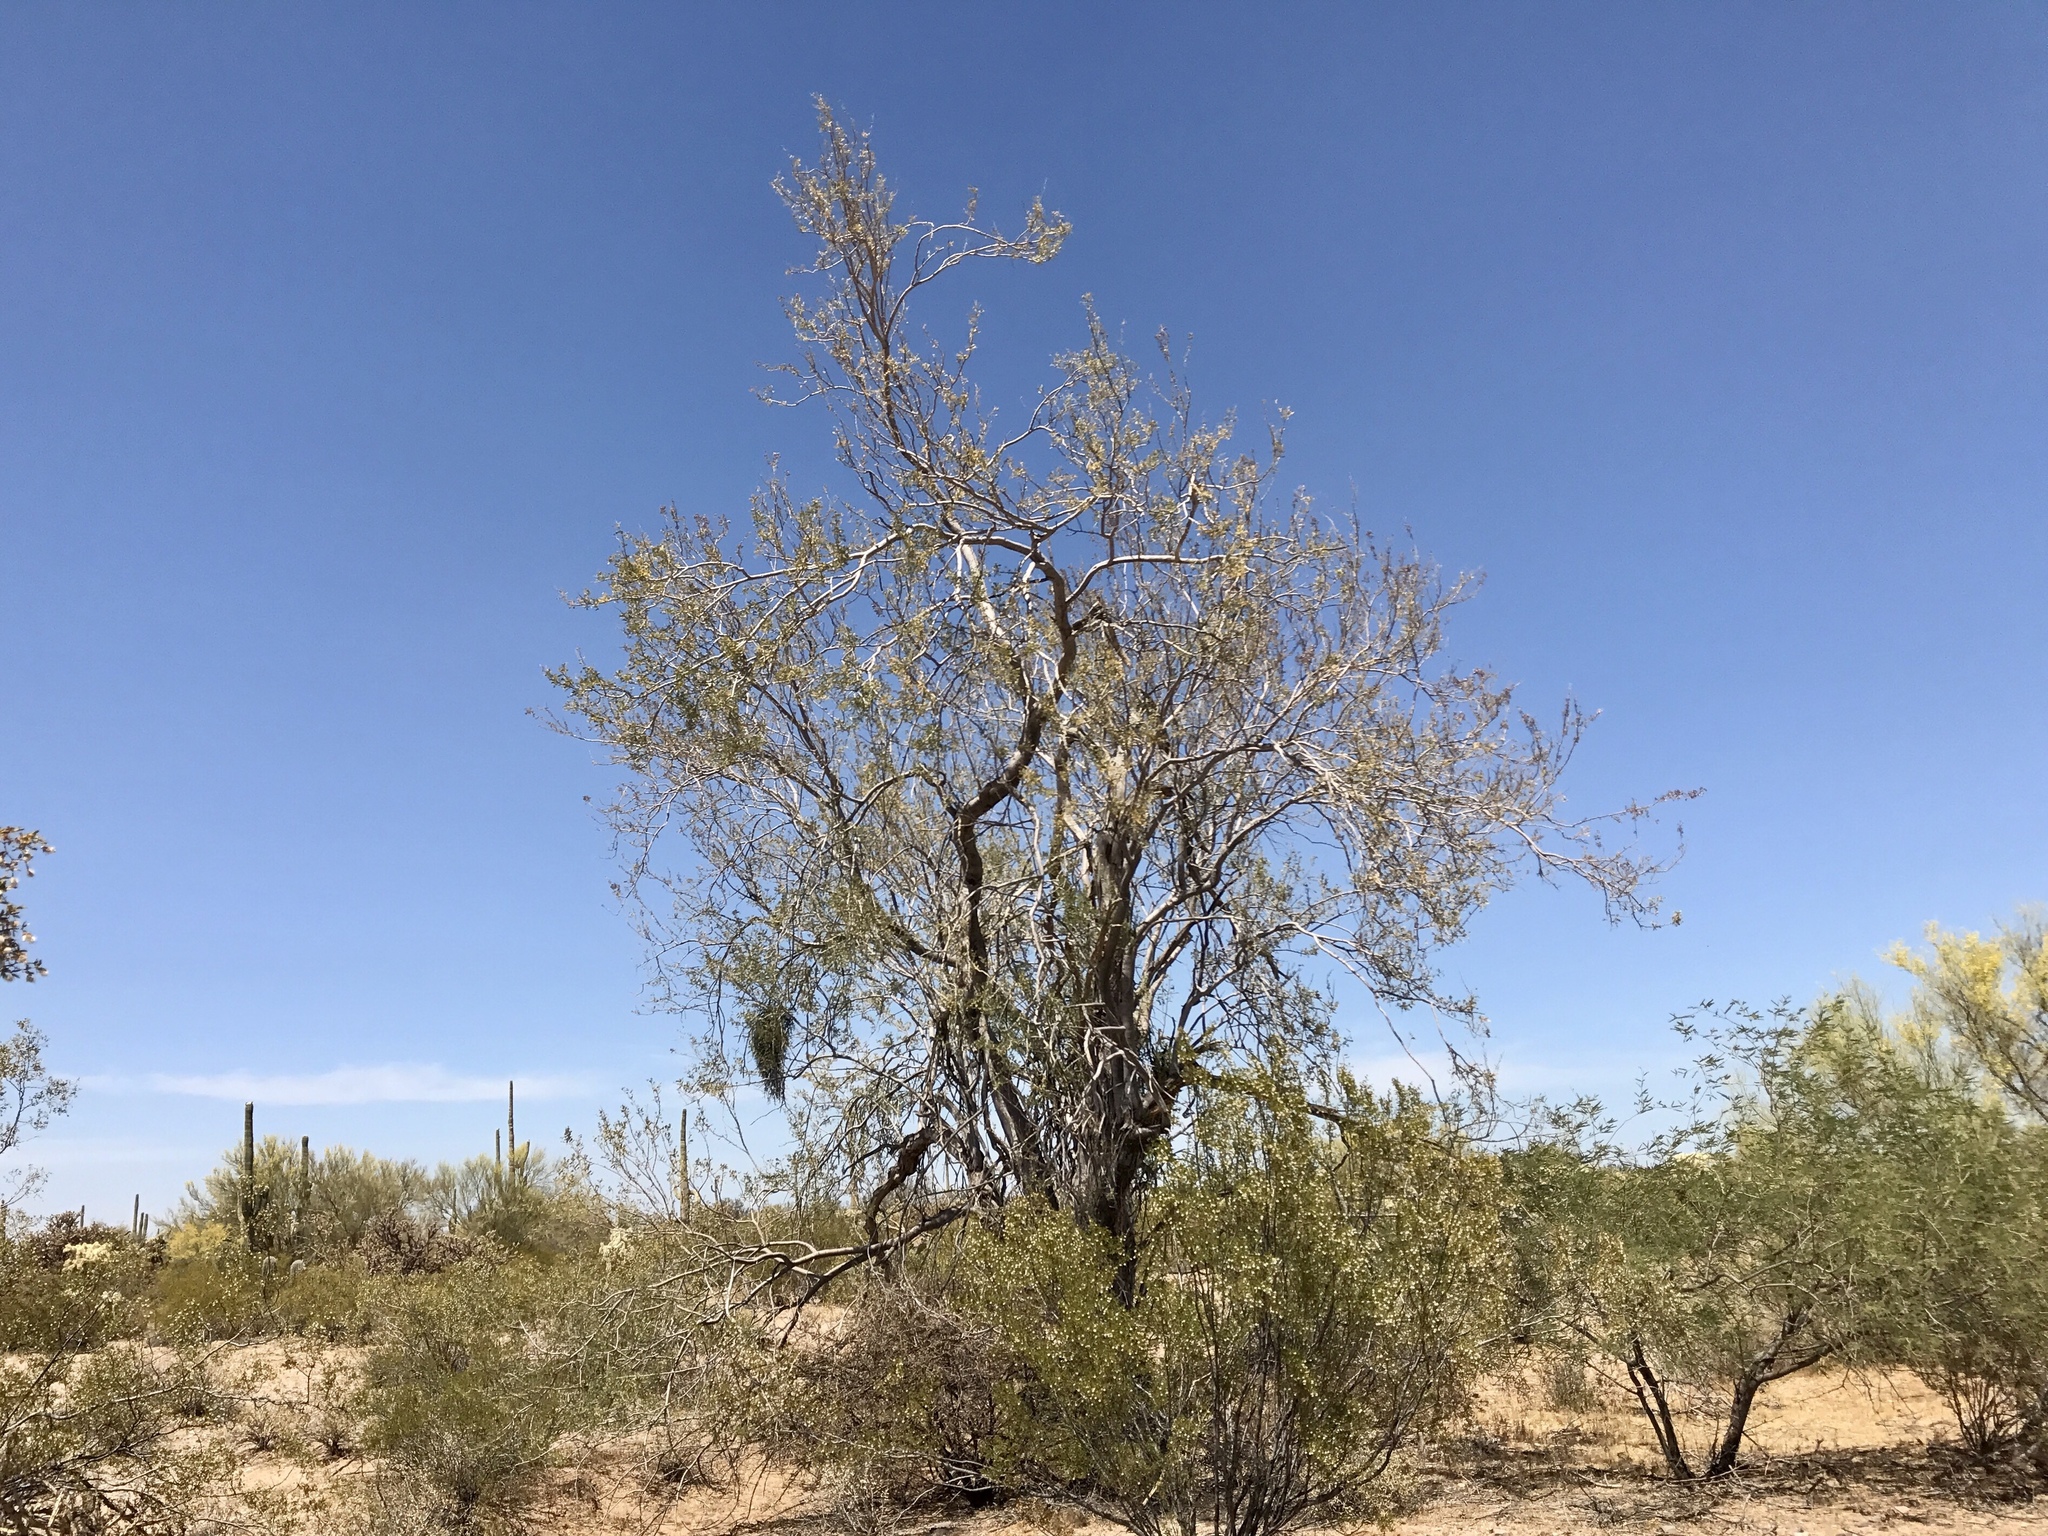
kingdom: Plantae
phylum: Tracheophyta
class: Magnoliopsida
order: Fabales
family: Fabaceae
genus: Olneya
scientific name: Olneya tesota
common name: Desert ironwood
